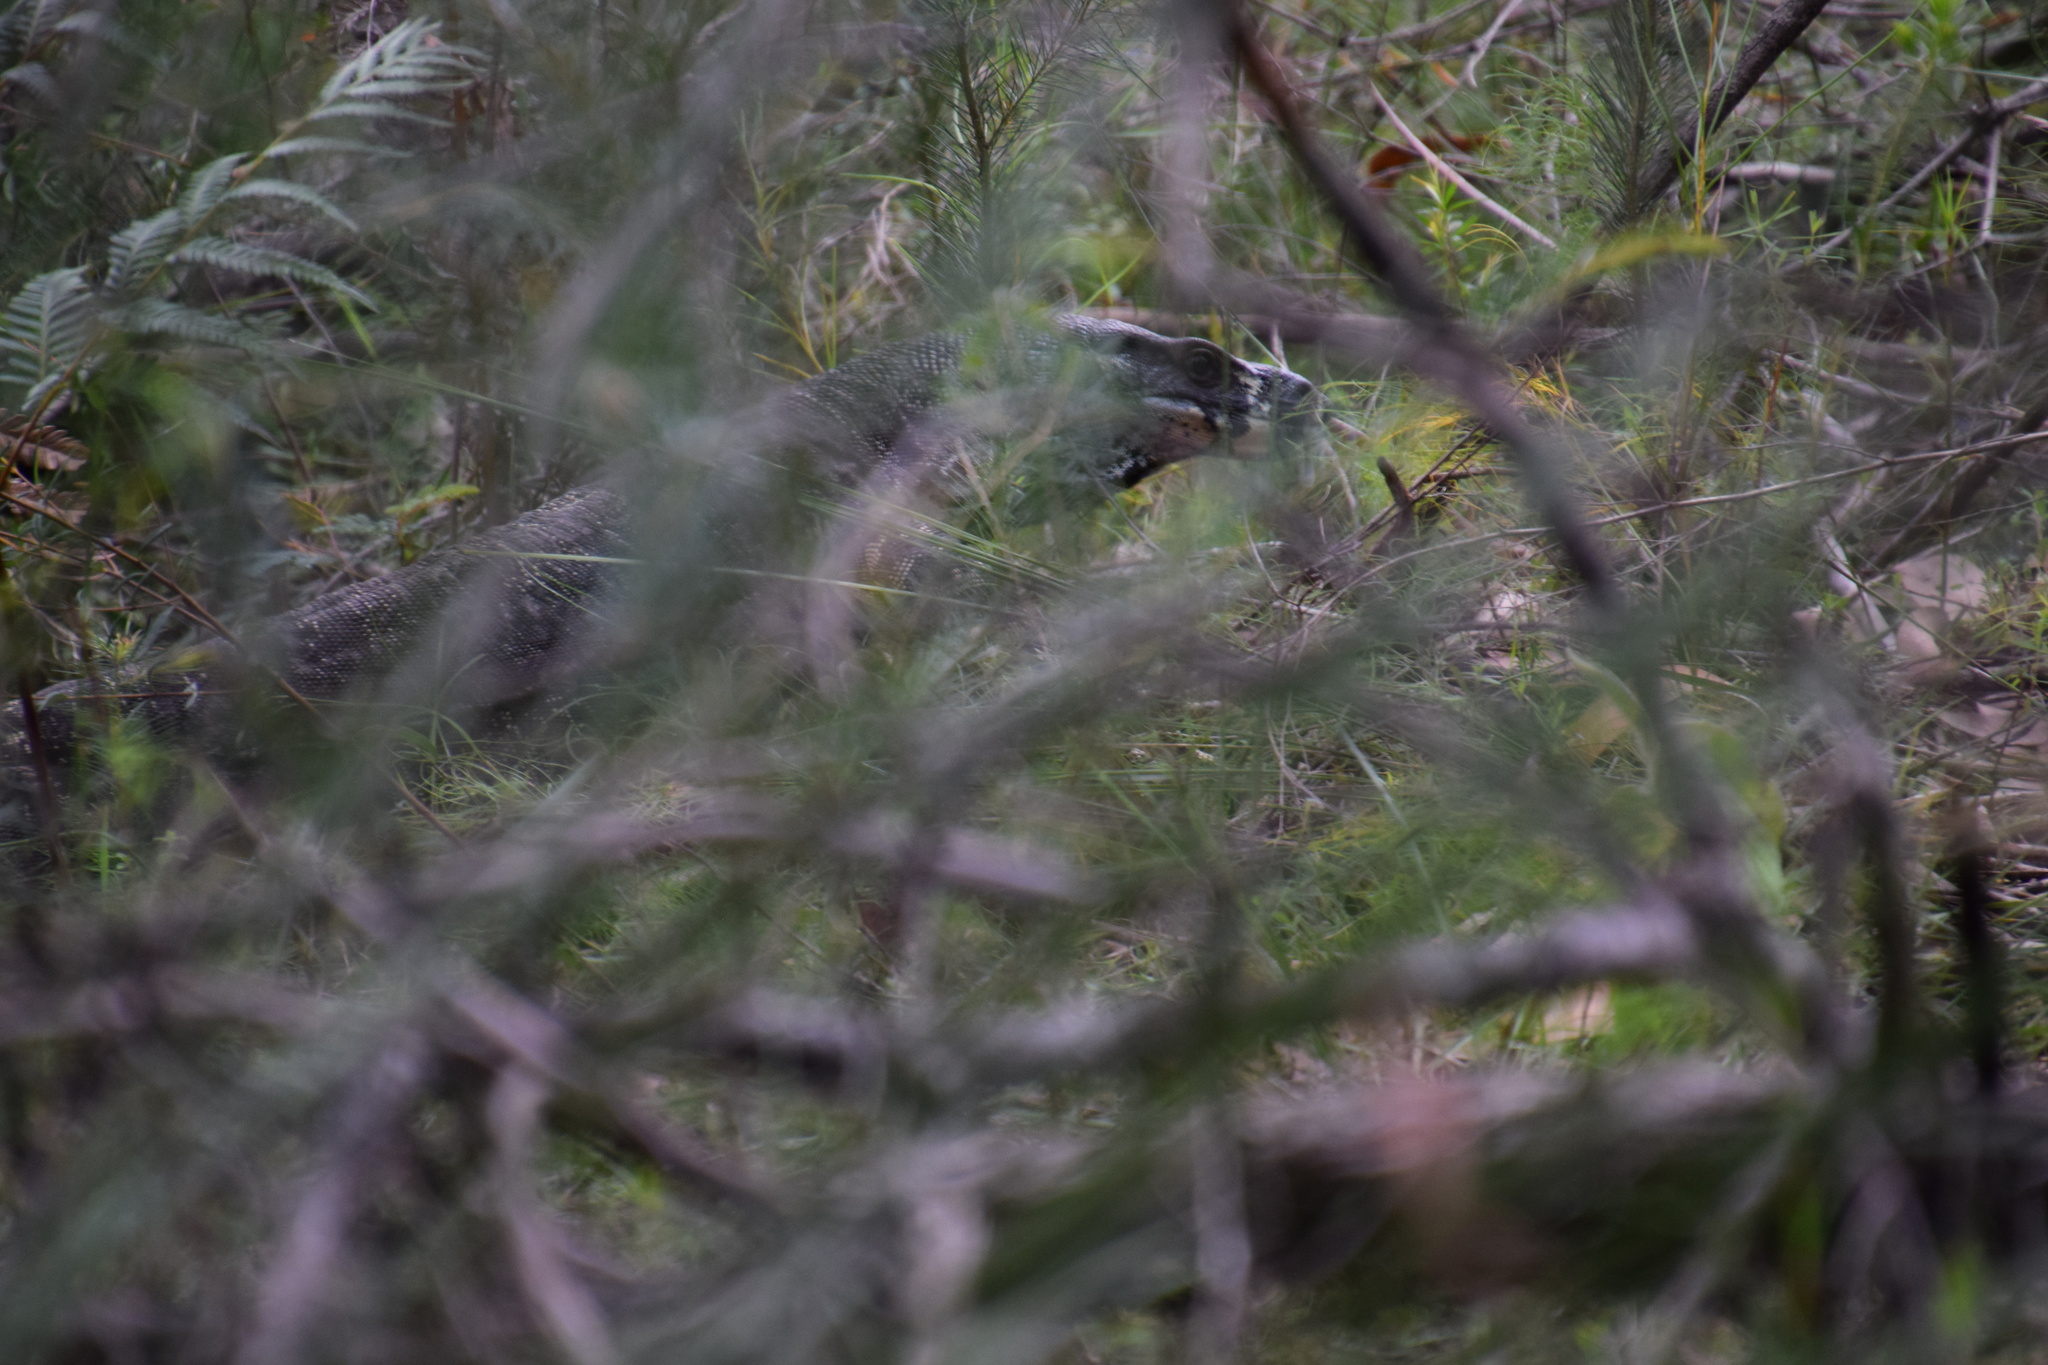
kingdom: Animalia
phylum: Chordata
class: Squamata
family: Varanidae
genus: Varanus
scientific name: Varanus varius
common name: Lace monitor
